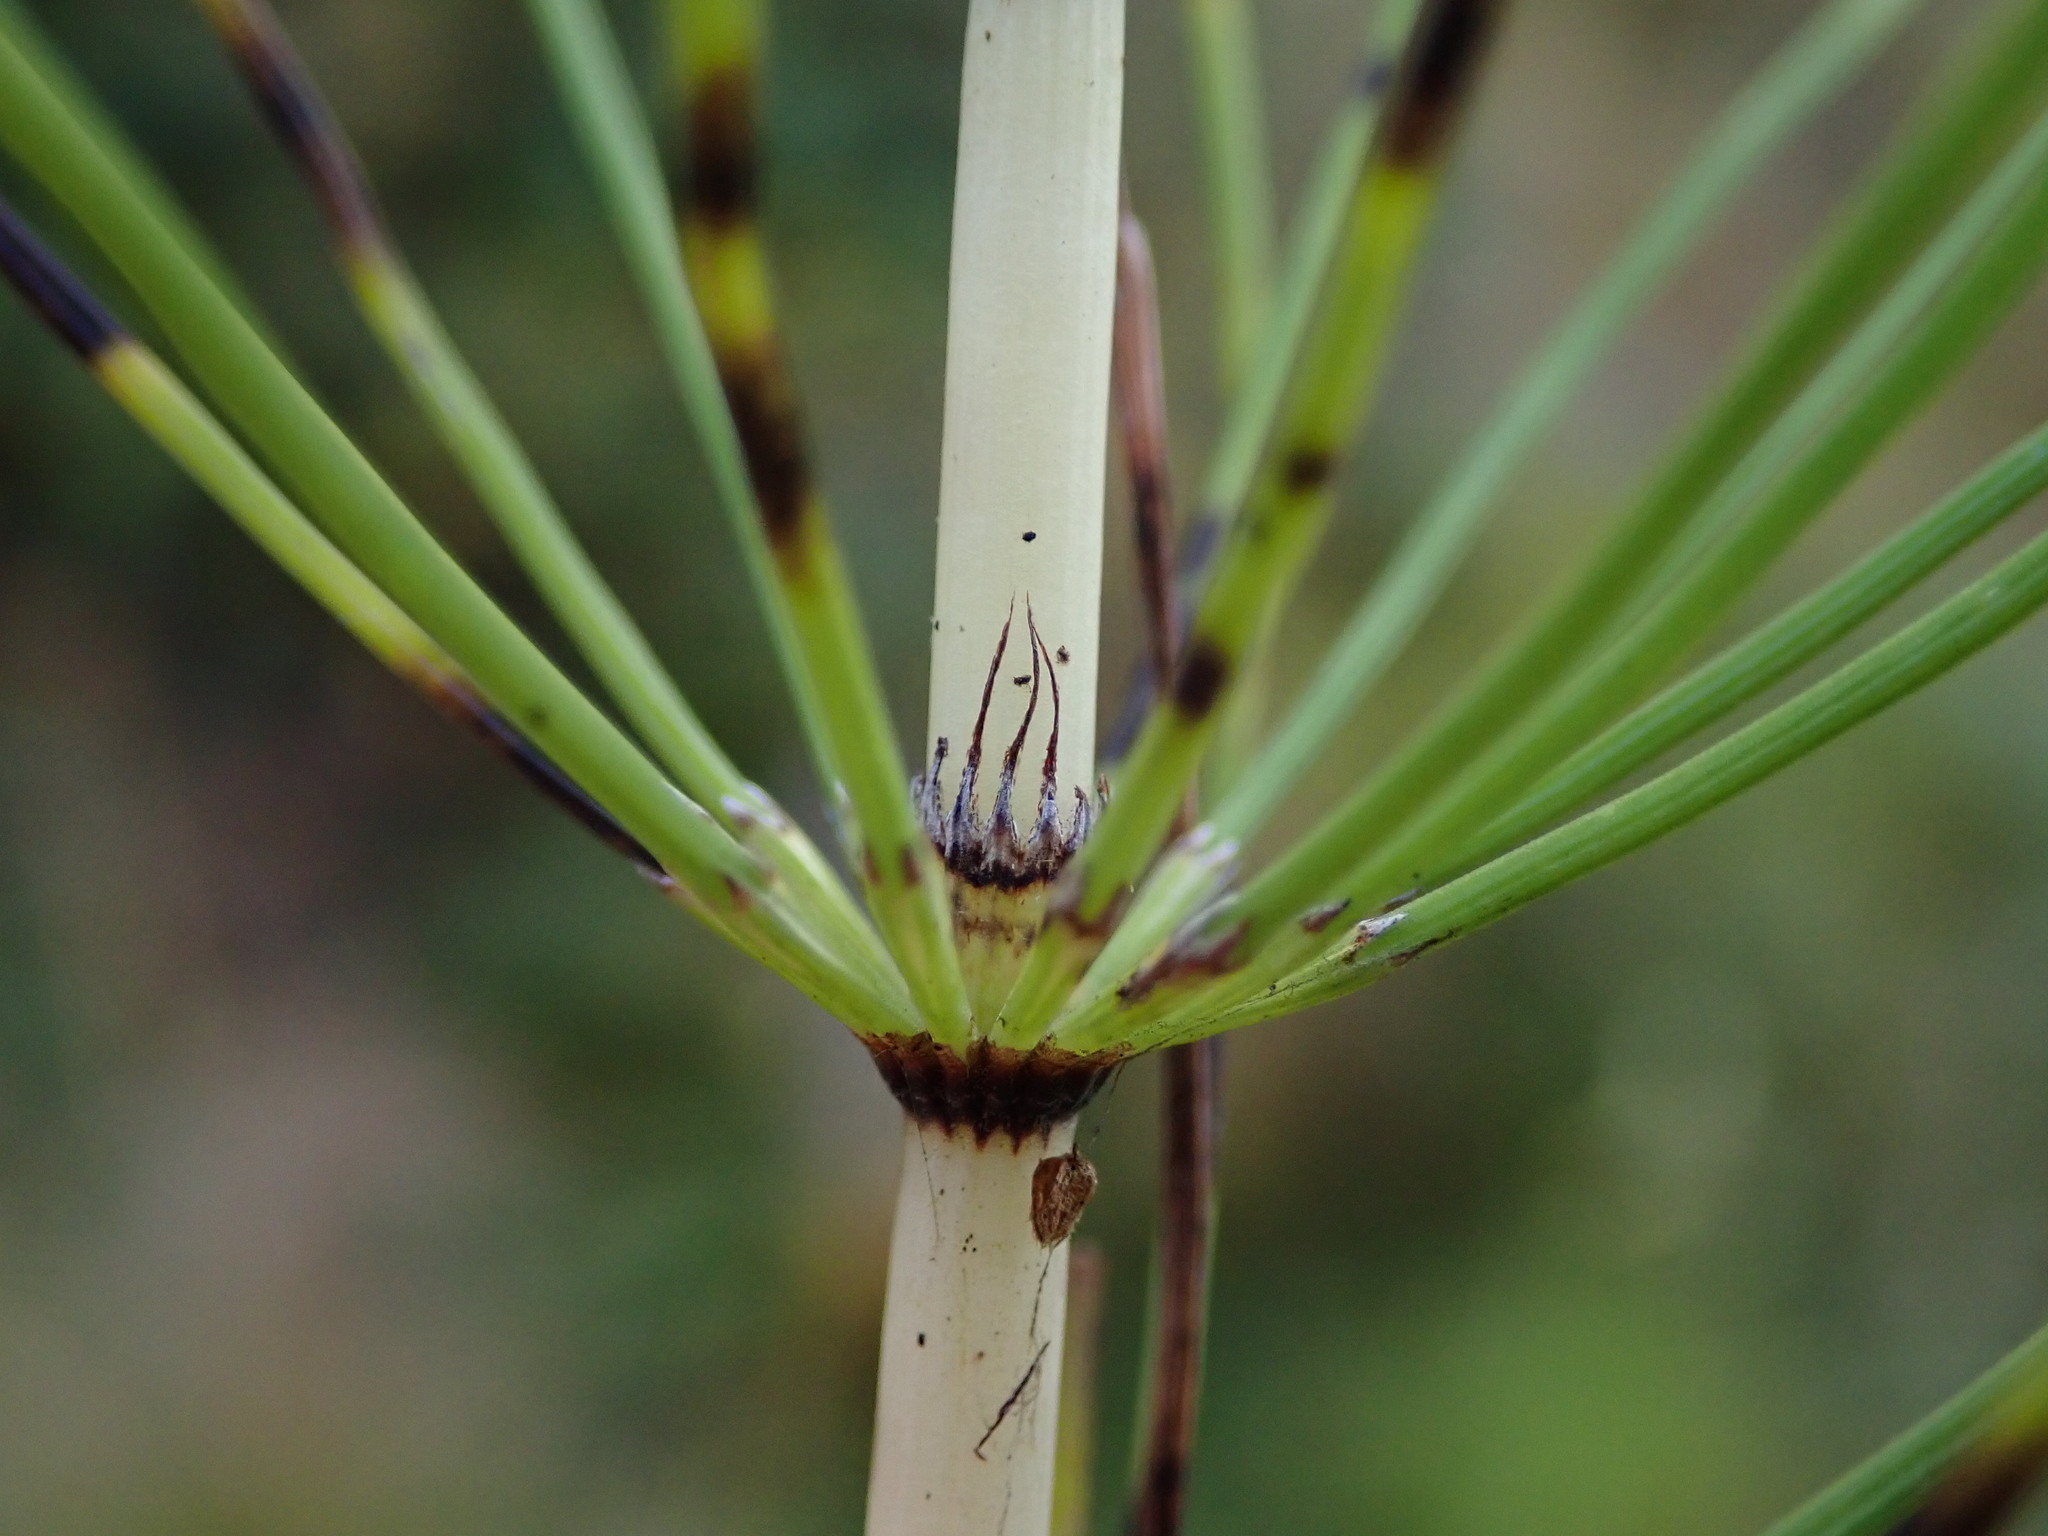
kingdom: Plantae
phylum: Tracheophyta
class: Polypodiopsida
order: Equisetales
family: Equisetaceae
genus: Equisetum
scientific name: Equisetum telmateia
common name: Great horsetail
